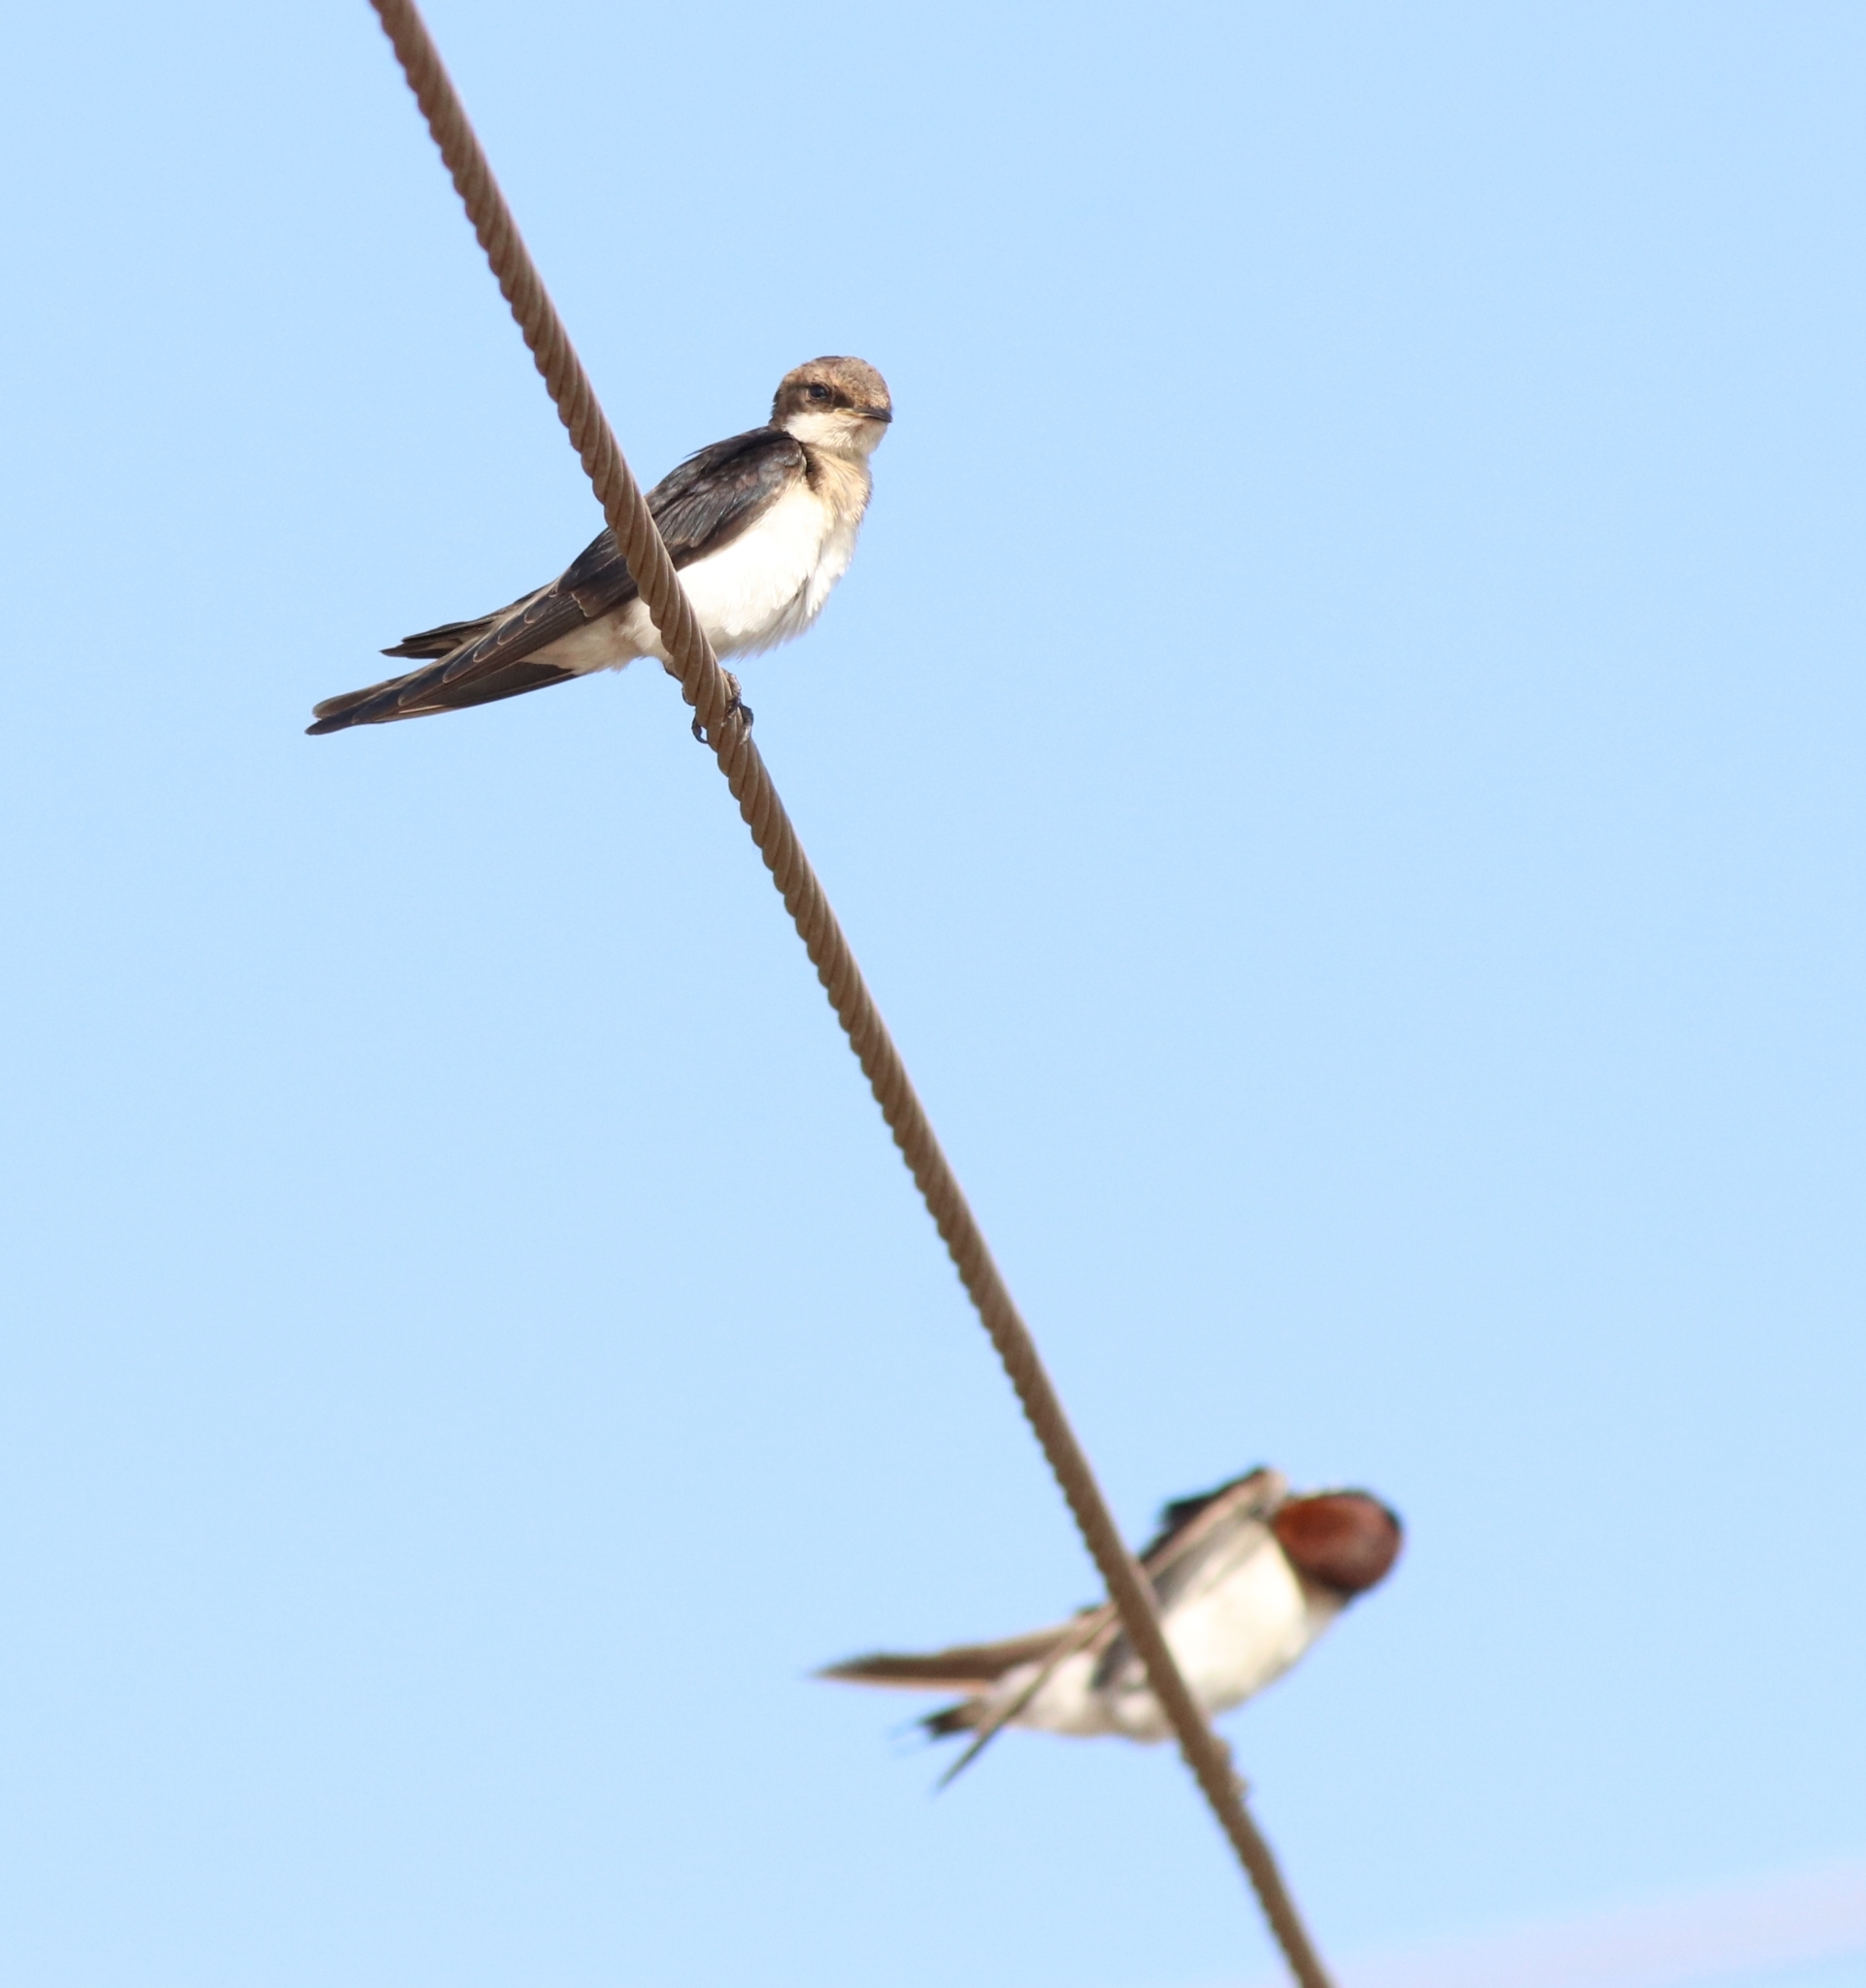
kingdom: Animalia
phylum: Chordata
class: Aves
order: Passeriformes
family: Hirundinidae
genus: Hirundo
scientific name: Hirundo smithii
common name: Wire-tailed swallow
